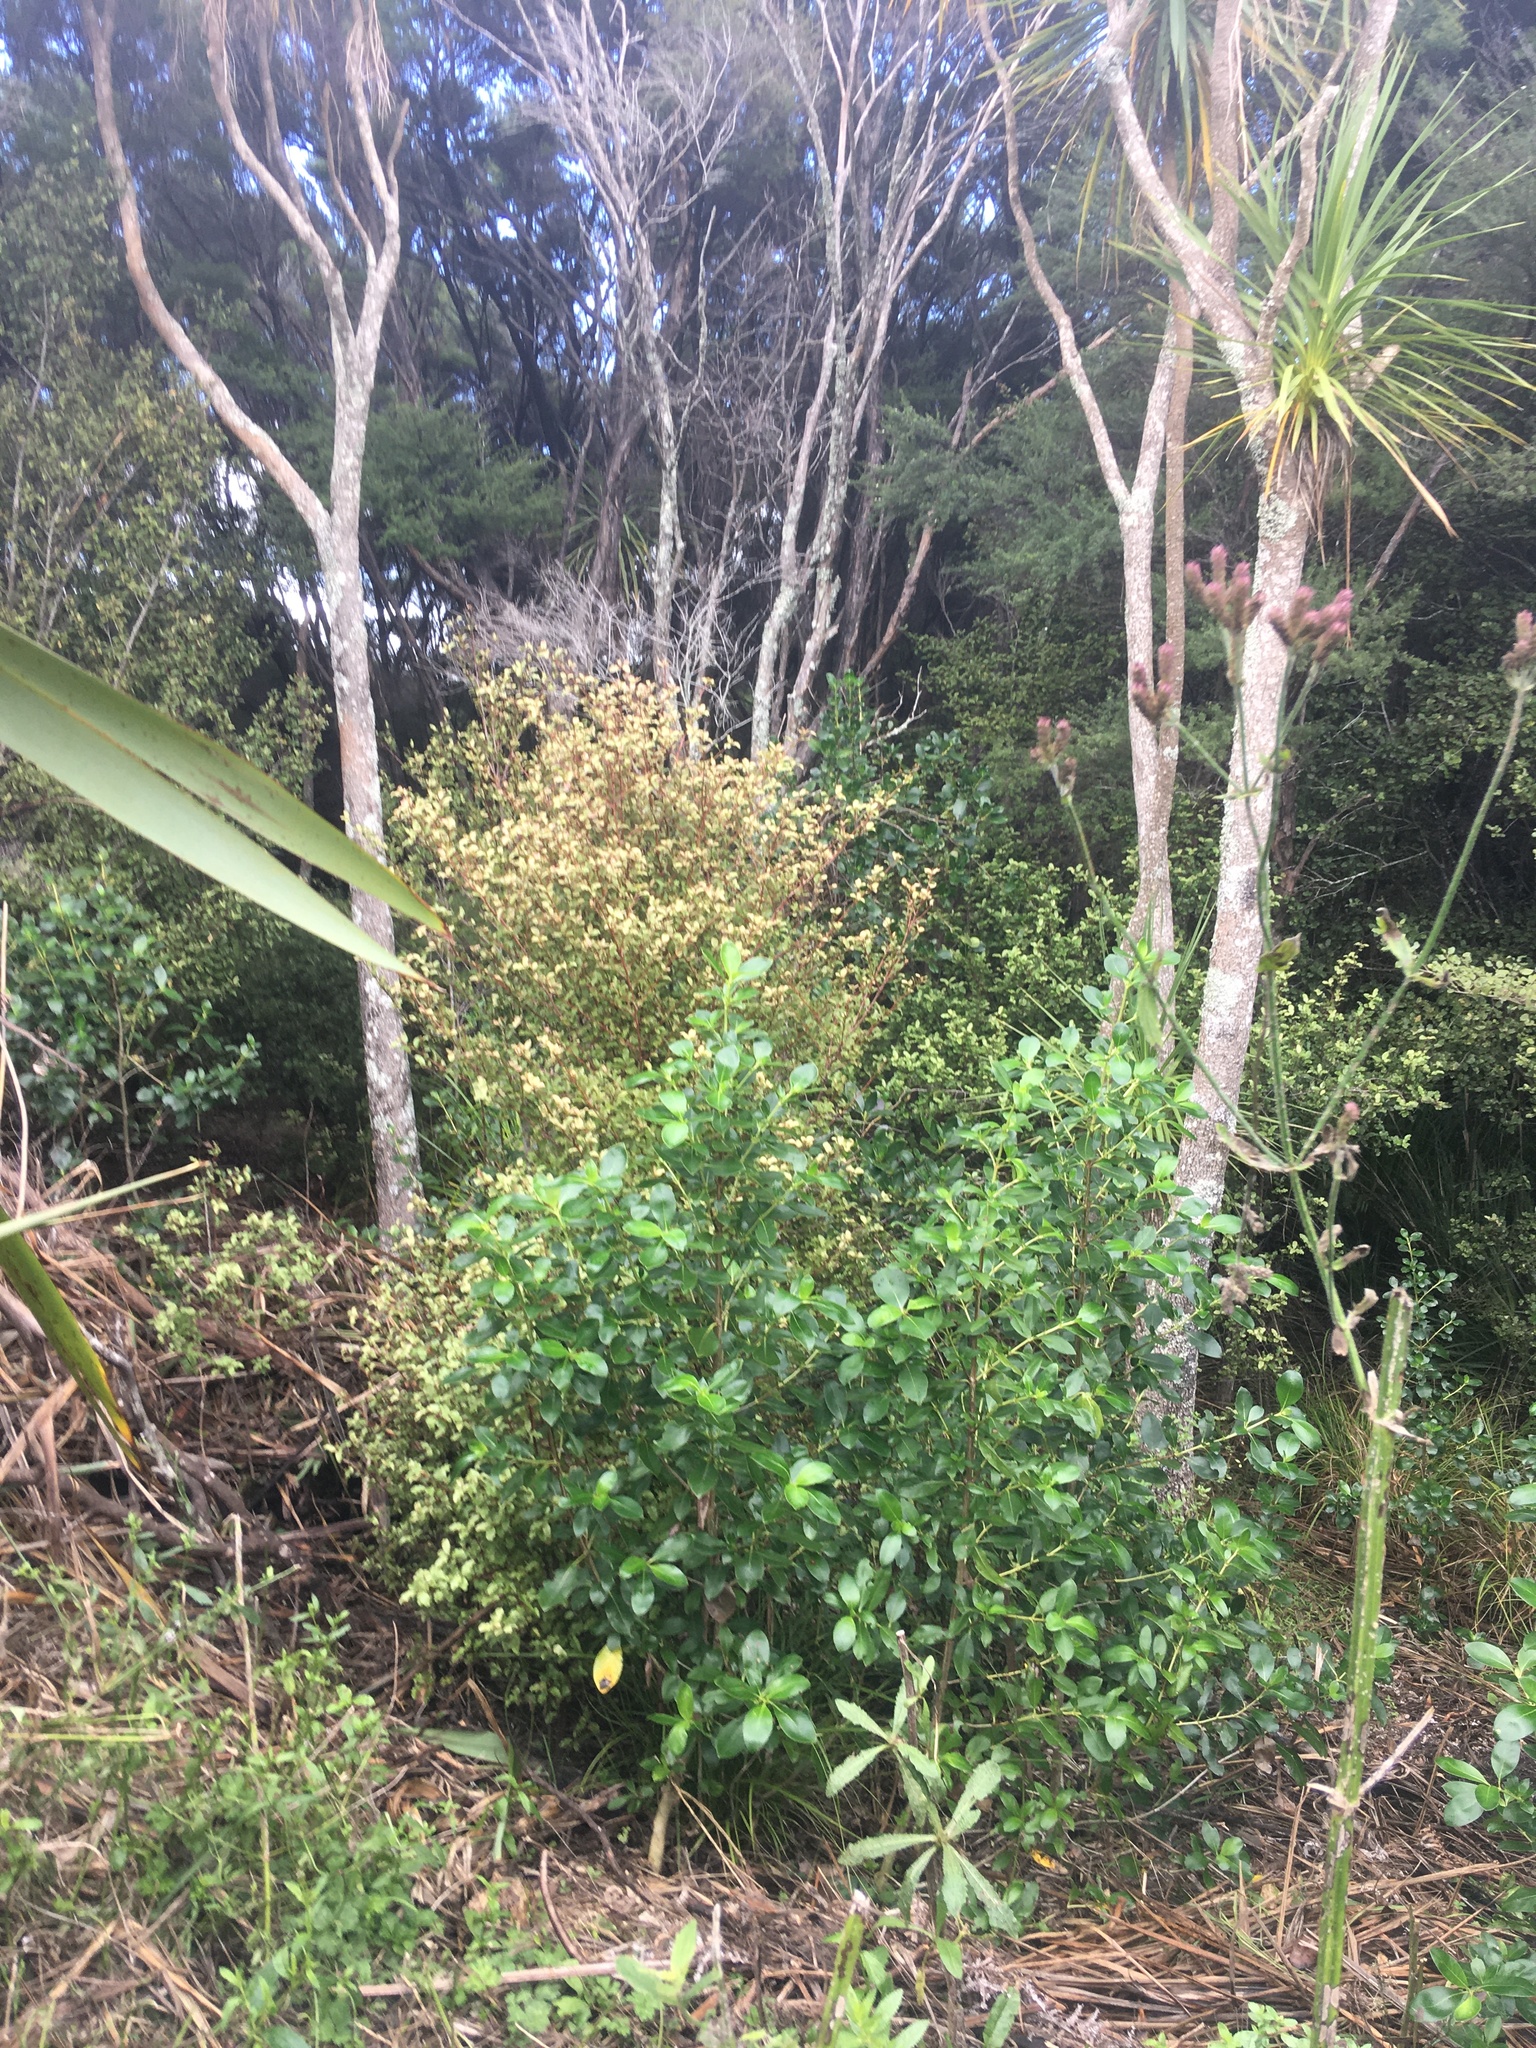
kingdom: Plantae
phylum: Tracheophyta
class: Magnoliopsida
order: Ericales
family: Primulaceae
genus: Myrsine
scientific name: Myrsine australis
